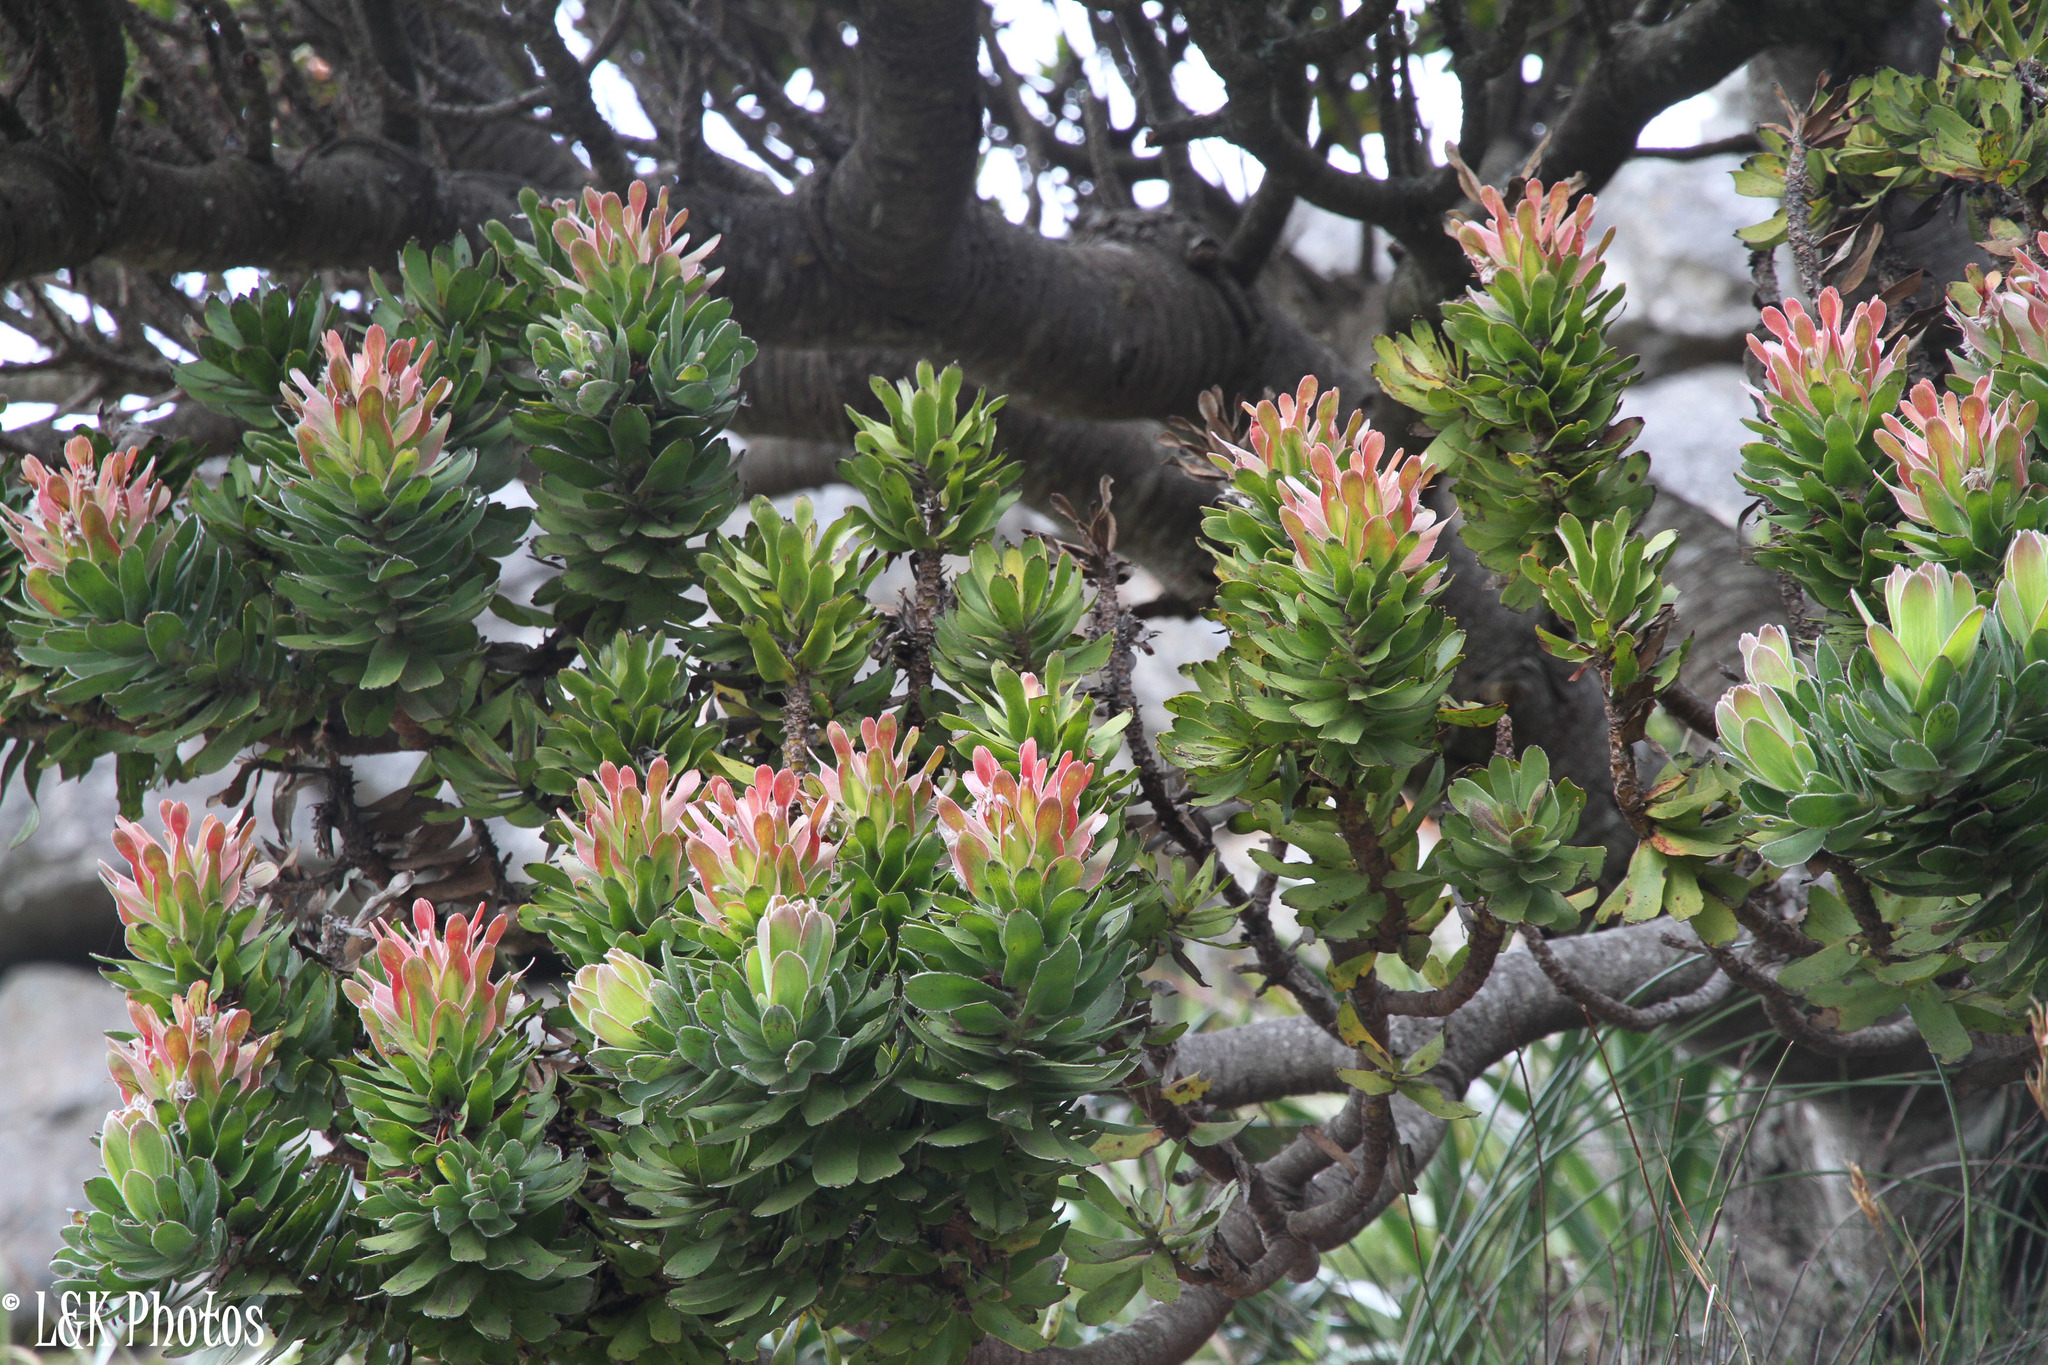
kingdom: Plantae
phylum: Tracheophyta
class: Magnoliopsida
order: Proteales
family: Proteaceae
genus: Mimetes
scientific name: Mimetes fimbriifolius
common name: Fringed bottlebrush
